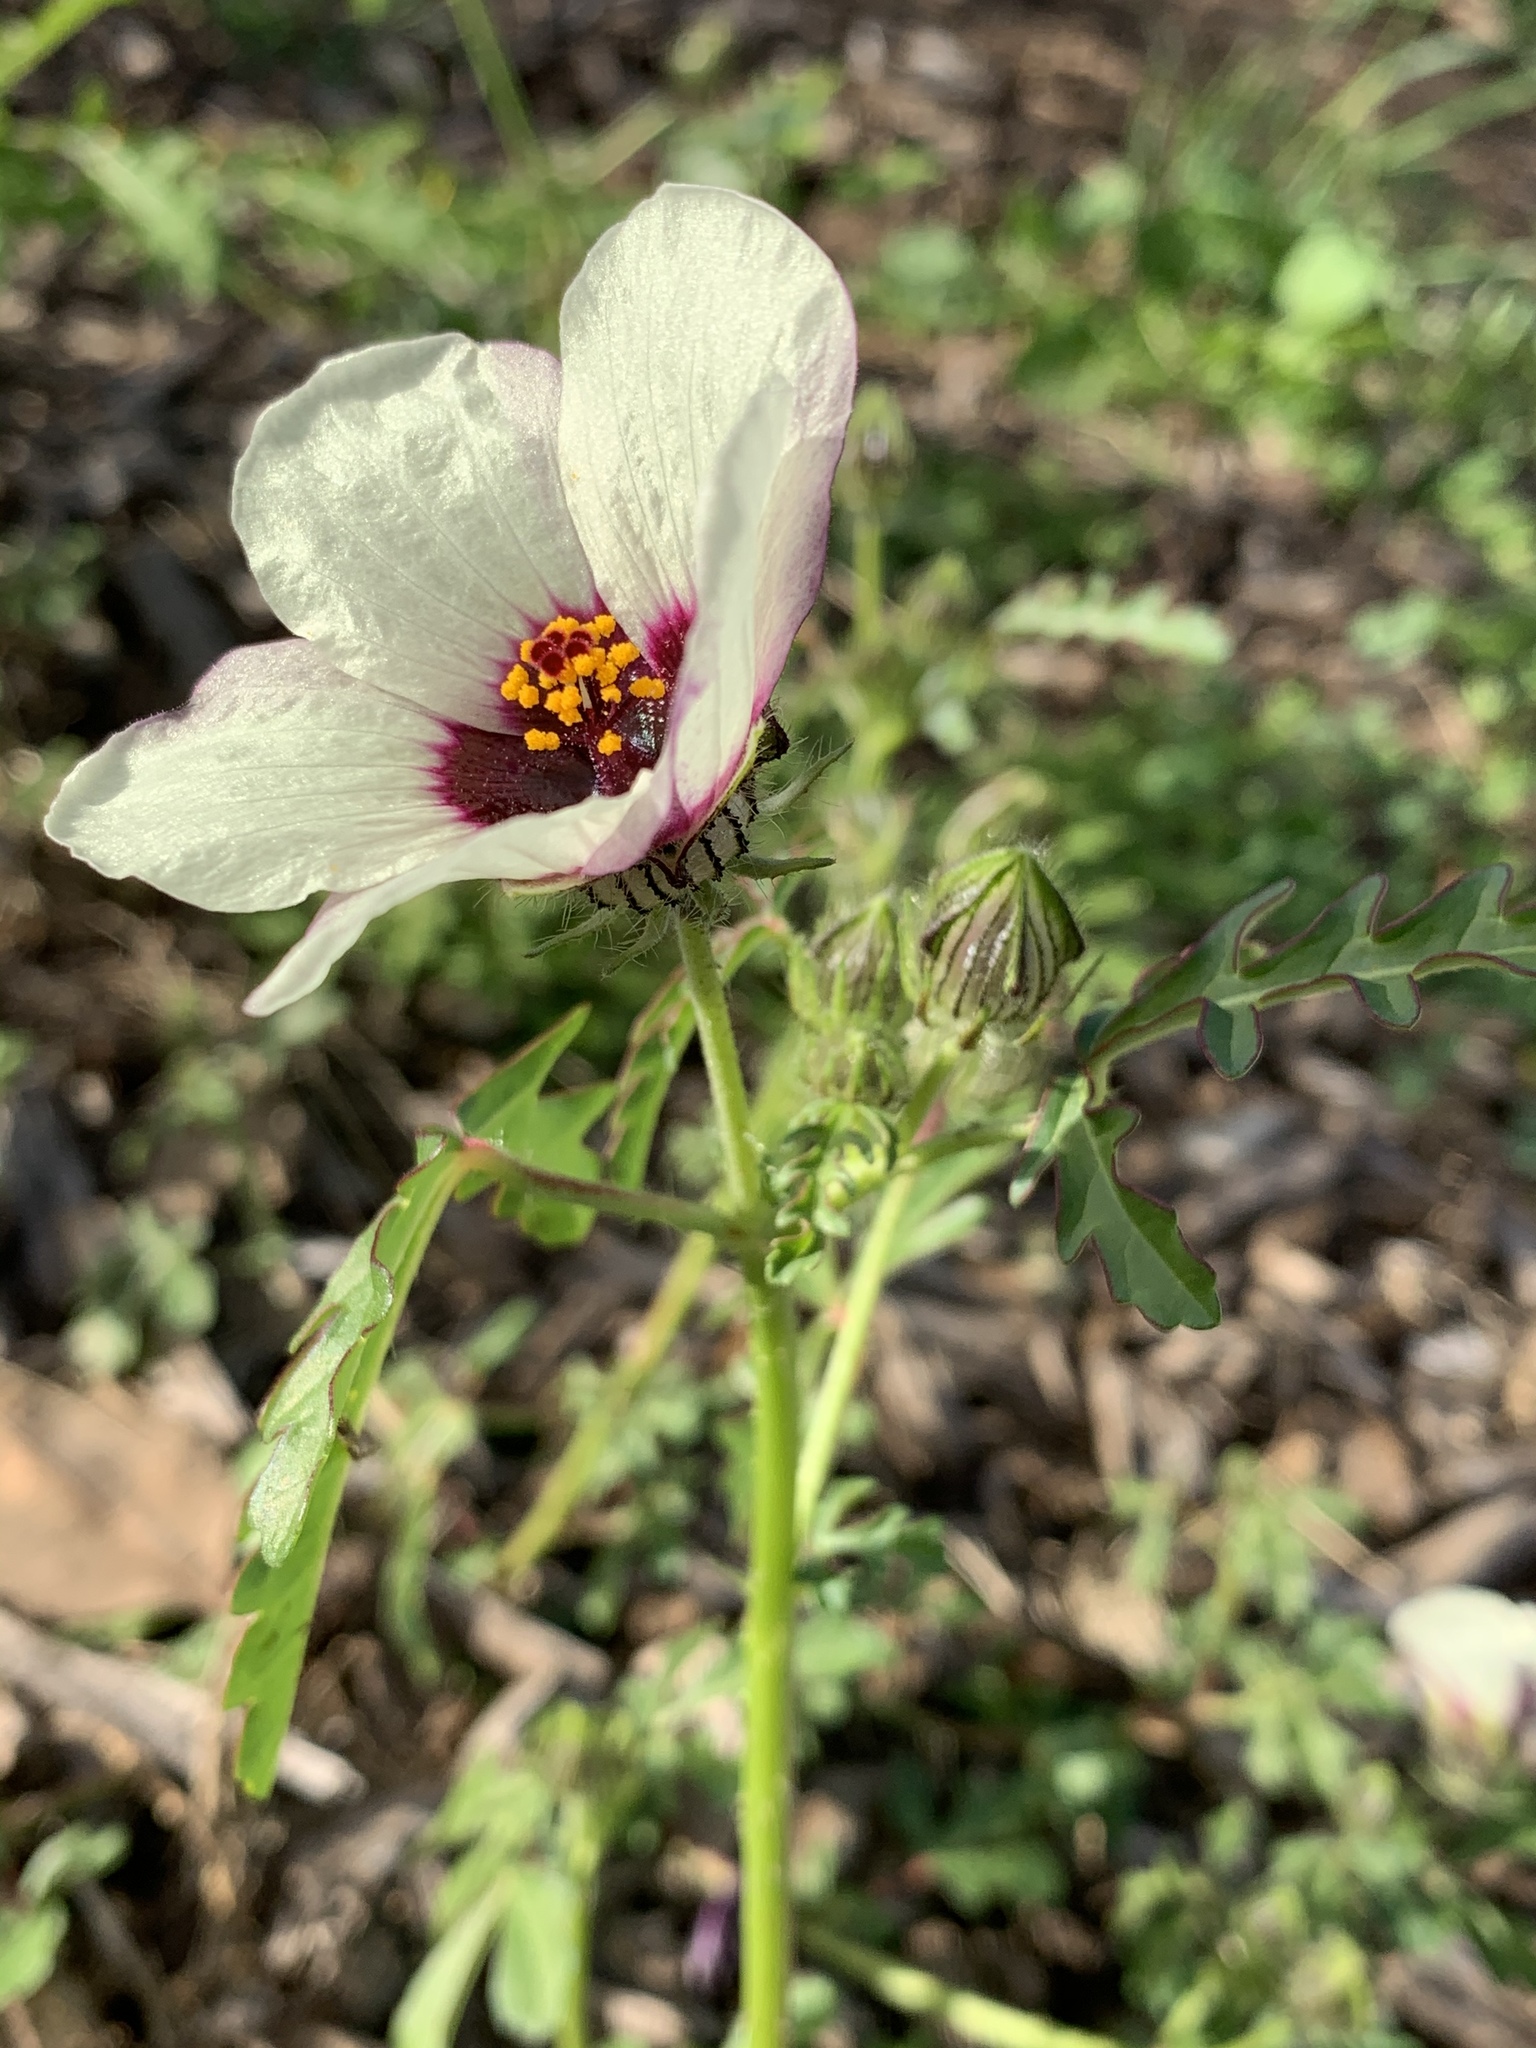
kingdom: Plantae
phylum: Tracheophyta
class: Magnoliopsida
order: Malvales
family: Malvaceae
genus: Hibiscus
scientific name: Hibiscus tridactylites
